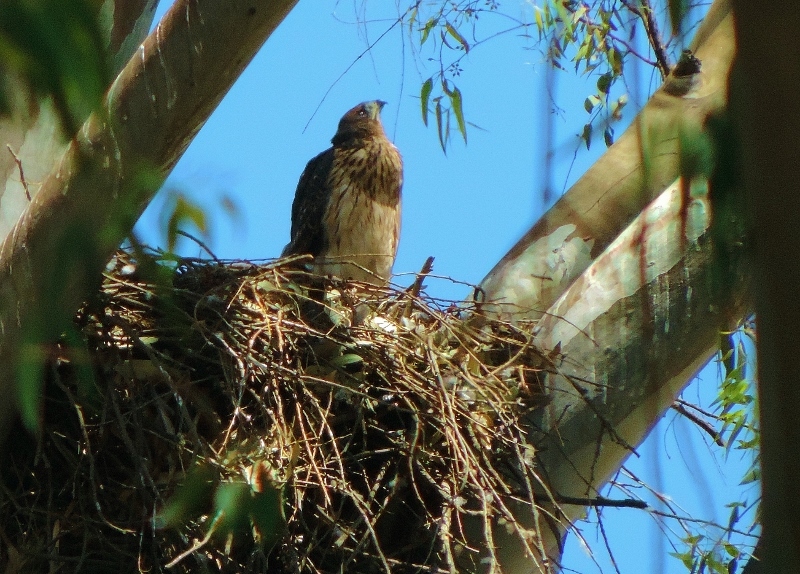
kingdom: Animalia
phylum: Chordata
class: Aves
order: Accipitriformes
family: Accipitridae
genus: Accipiter
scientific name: Accipiter melanoleucus
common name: Black sparrowhawk
